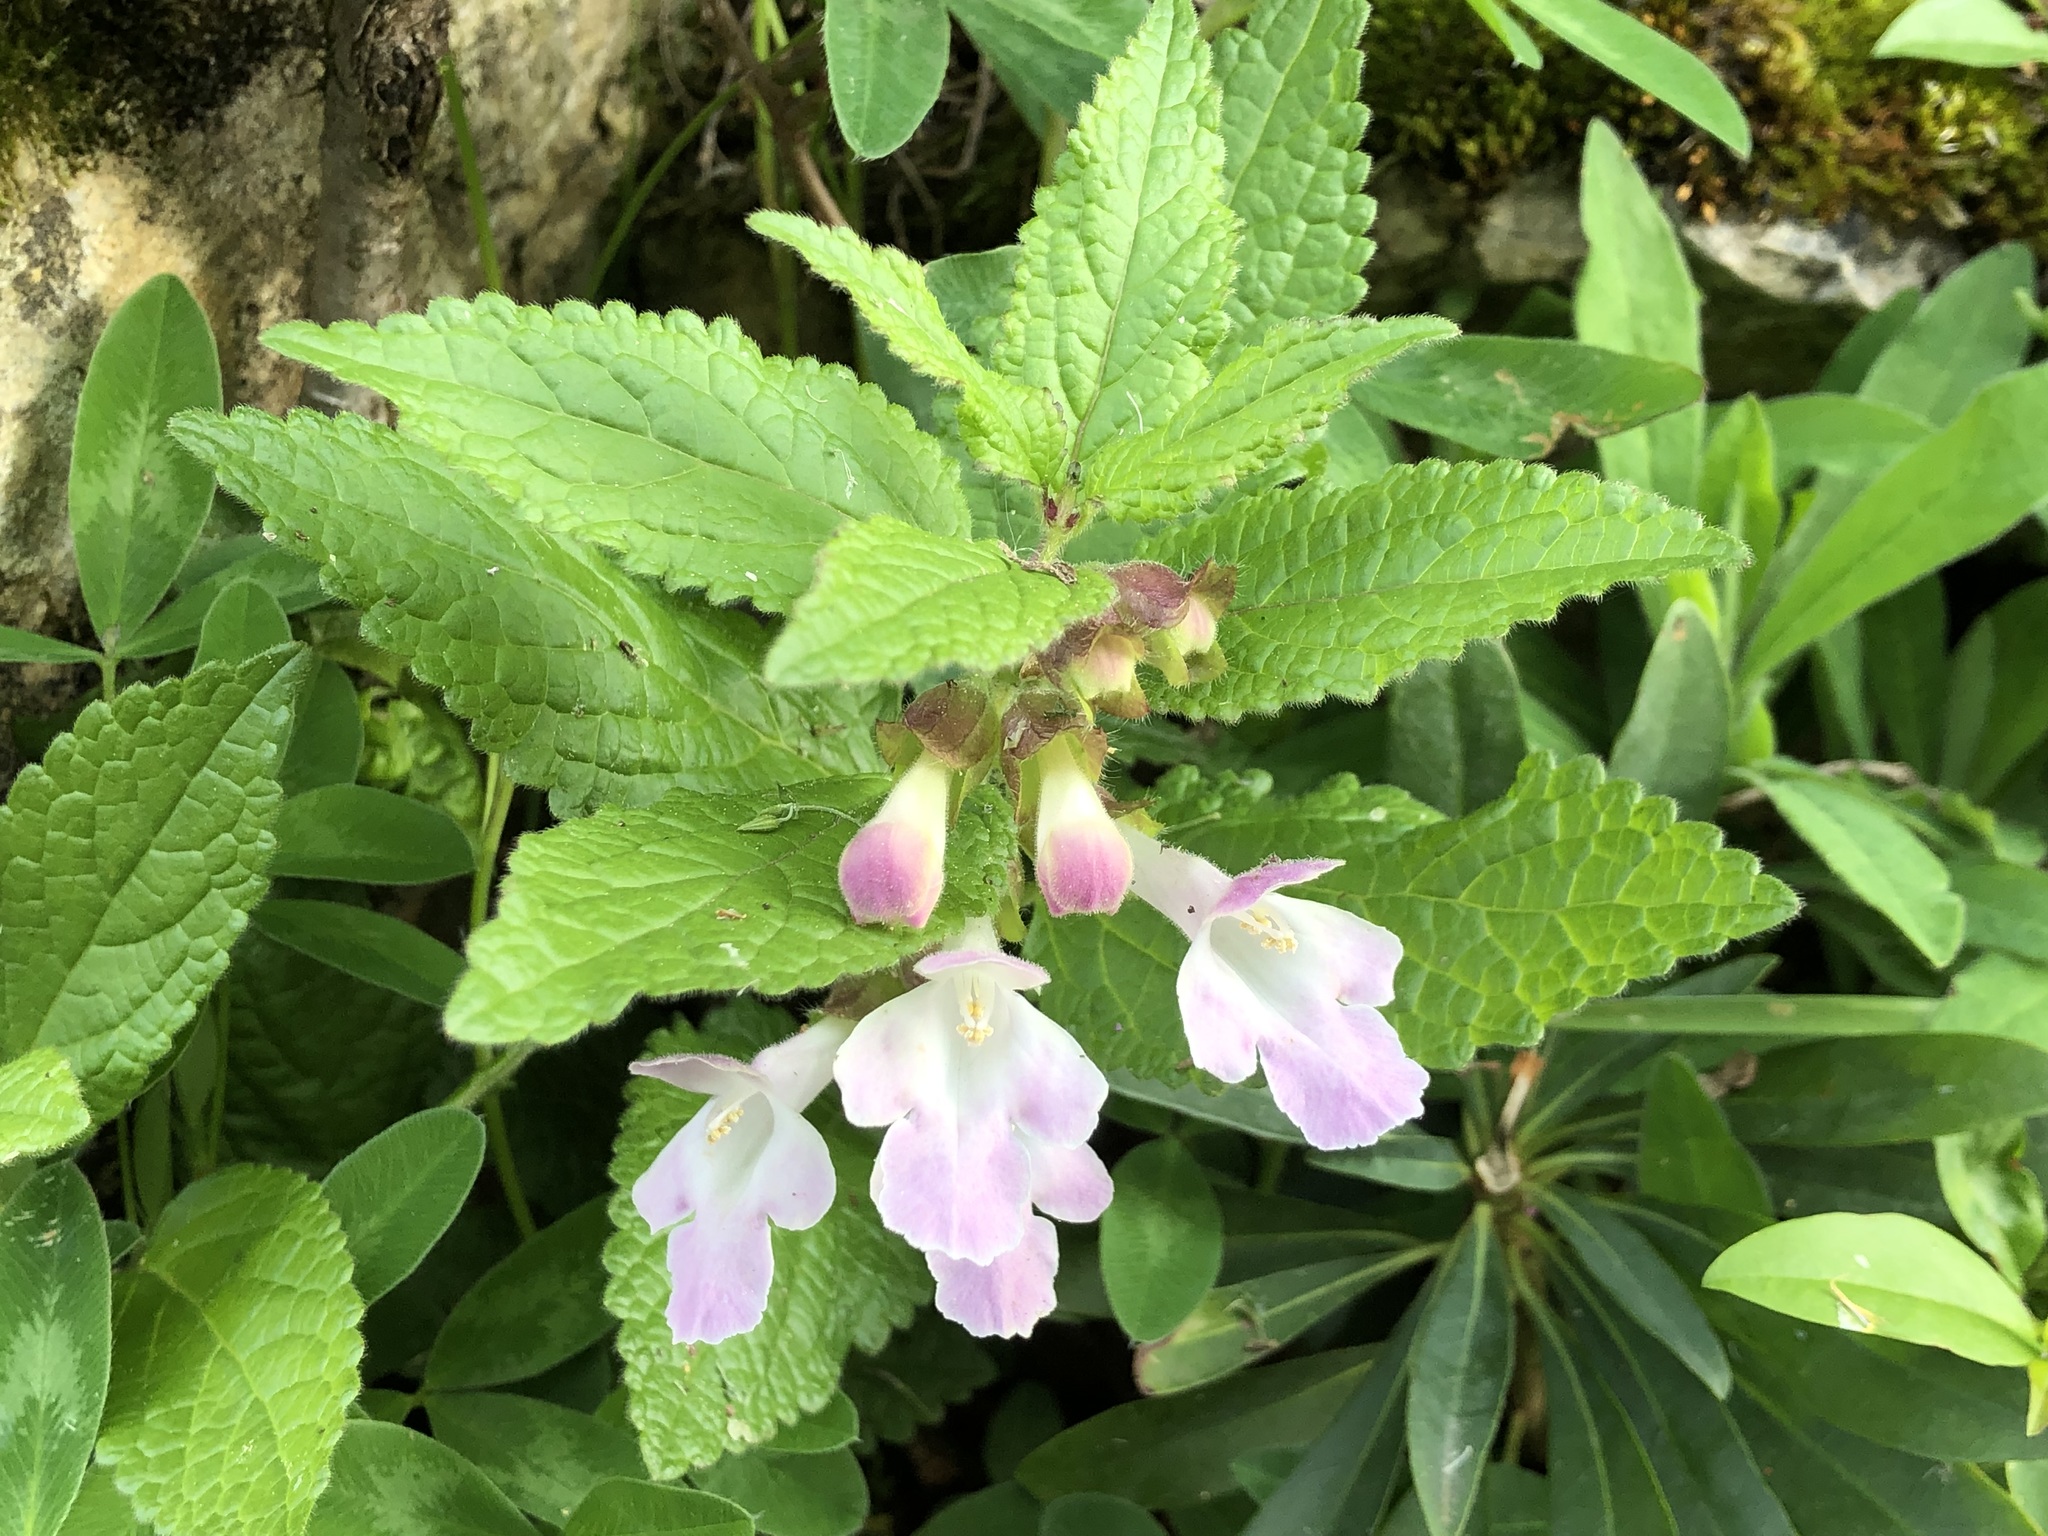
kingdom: Plantae
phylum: Tracheophyta
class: Magnoliopsida
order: Lamiales
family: Lamiaceae
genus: Melittis
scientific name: Melittis melissophyllum
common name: Bastard balm
